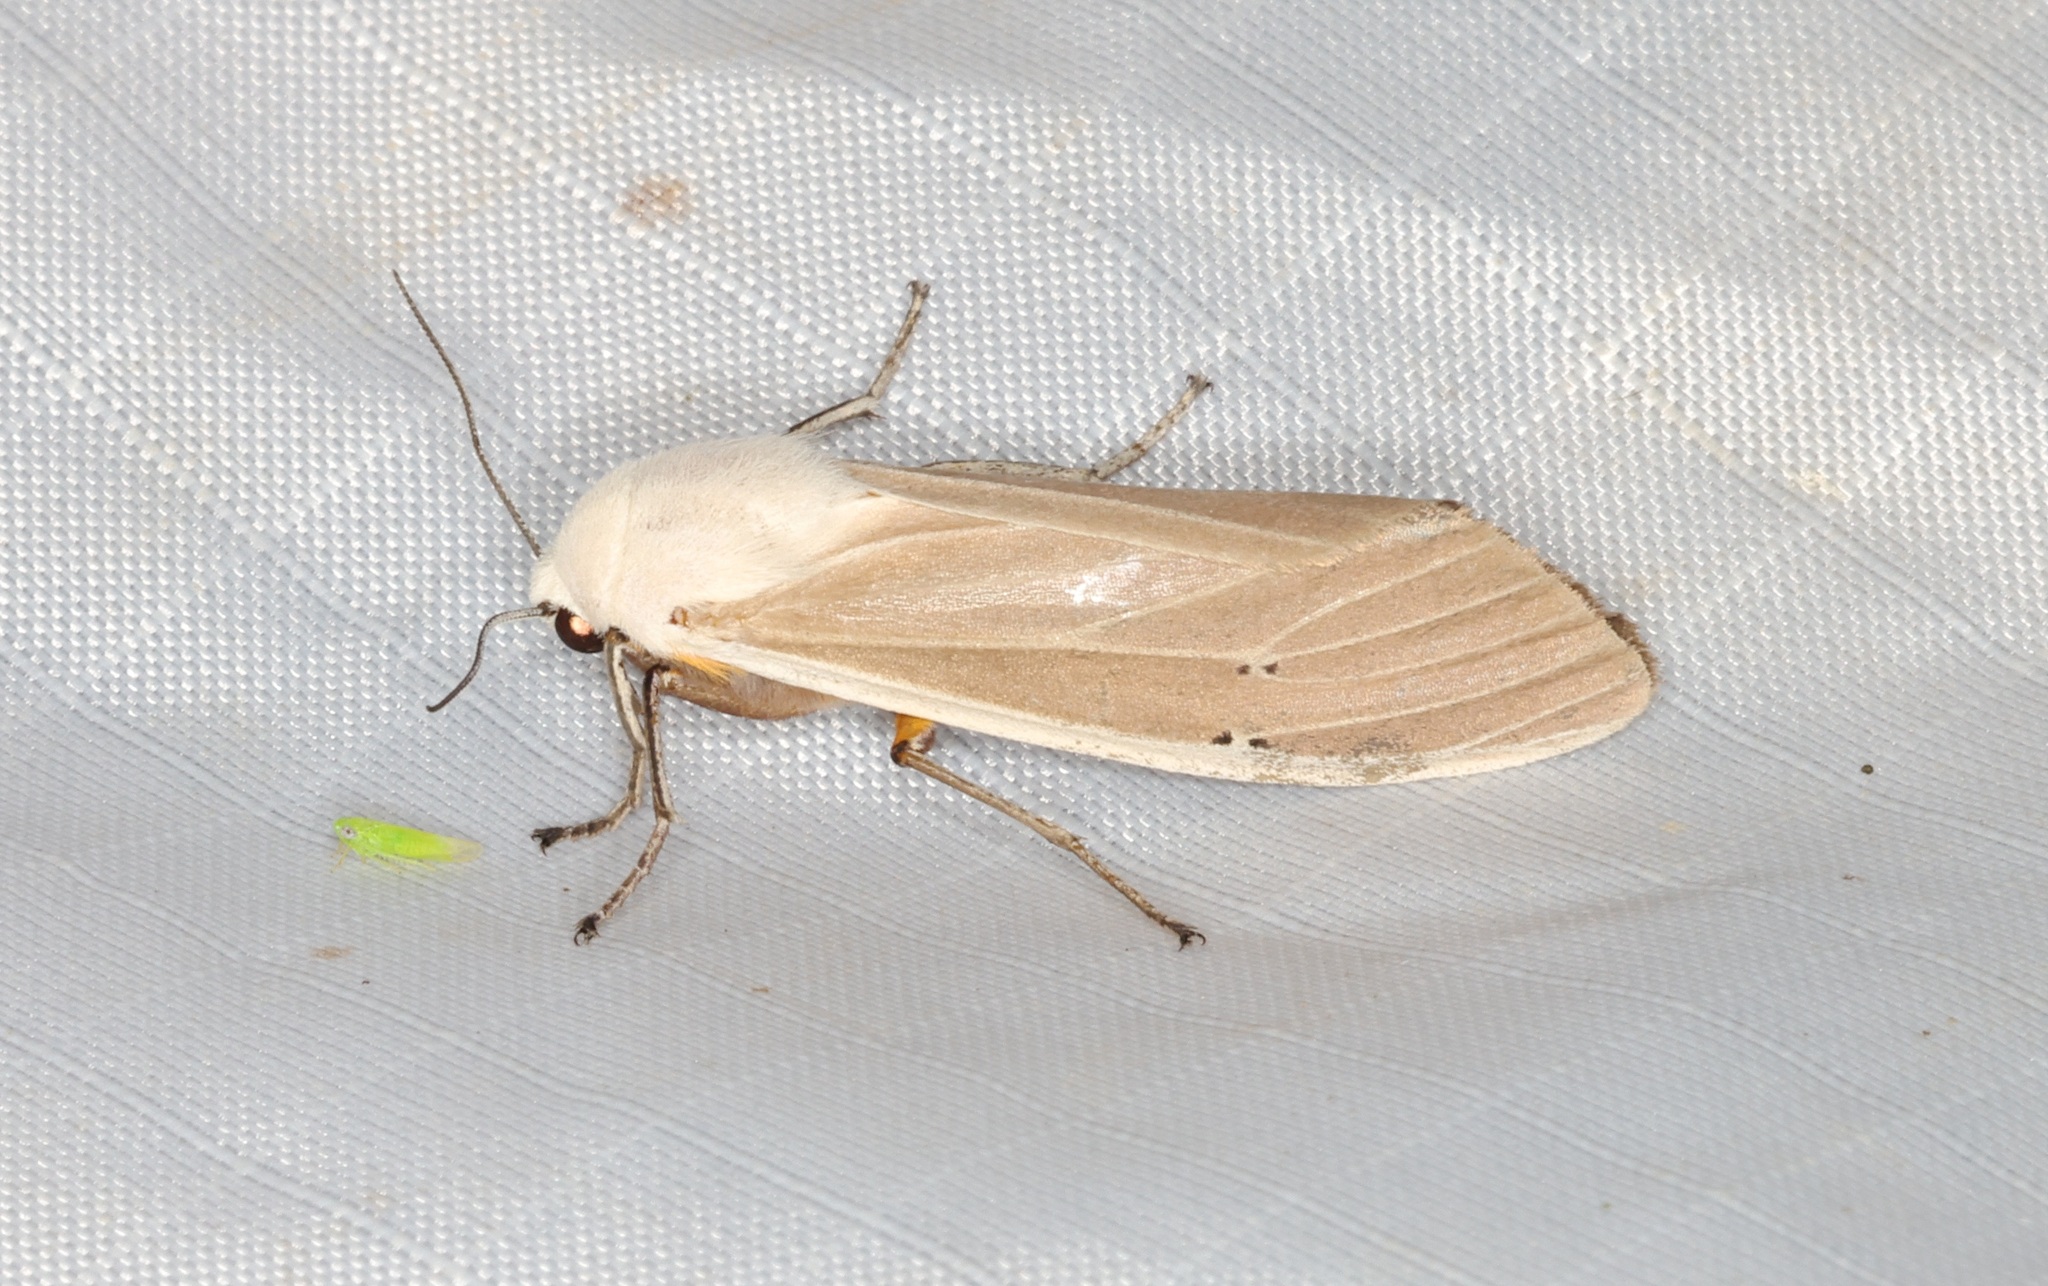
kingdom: Animalia
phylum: Arthropoda
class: Insecta
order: Lepidoptera
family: Erebidae
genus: Creatonotos
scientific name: Creatonotos transiens
